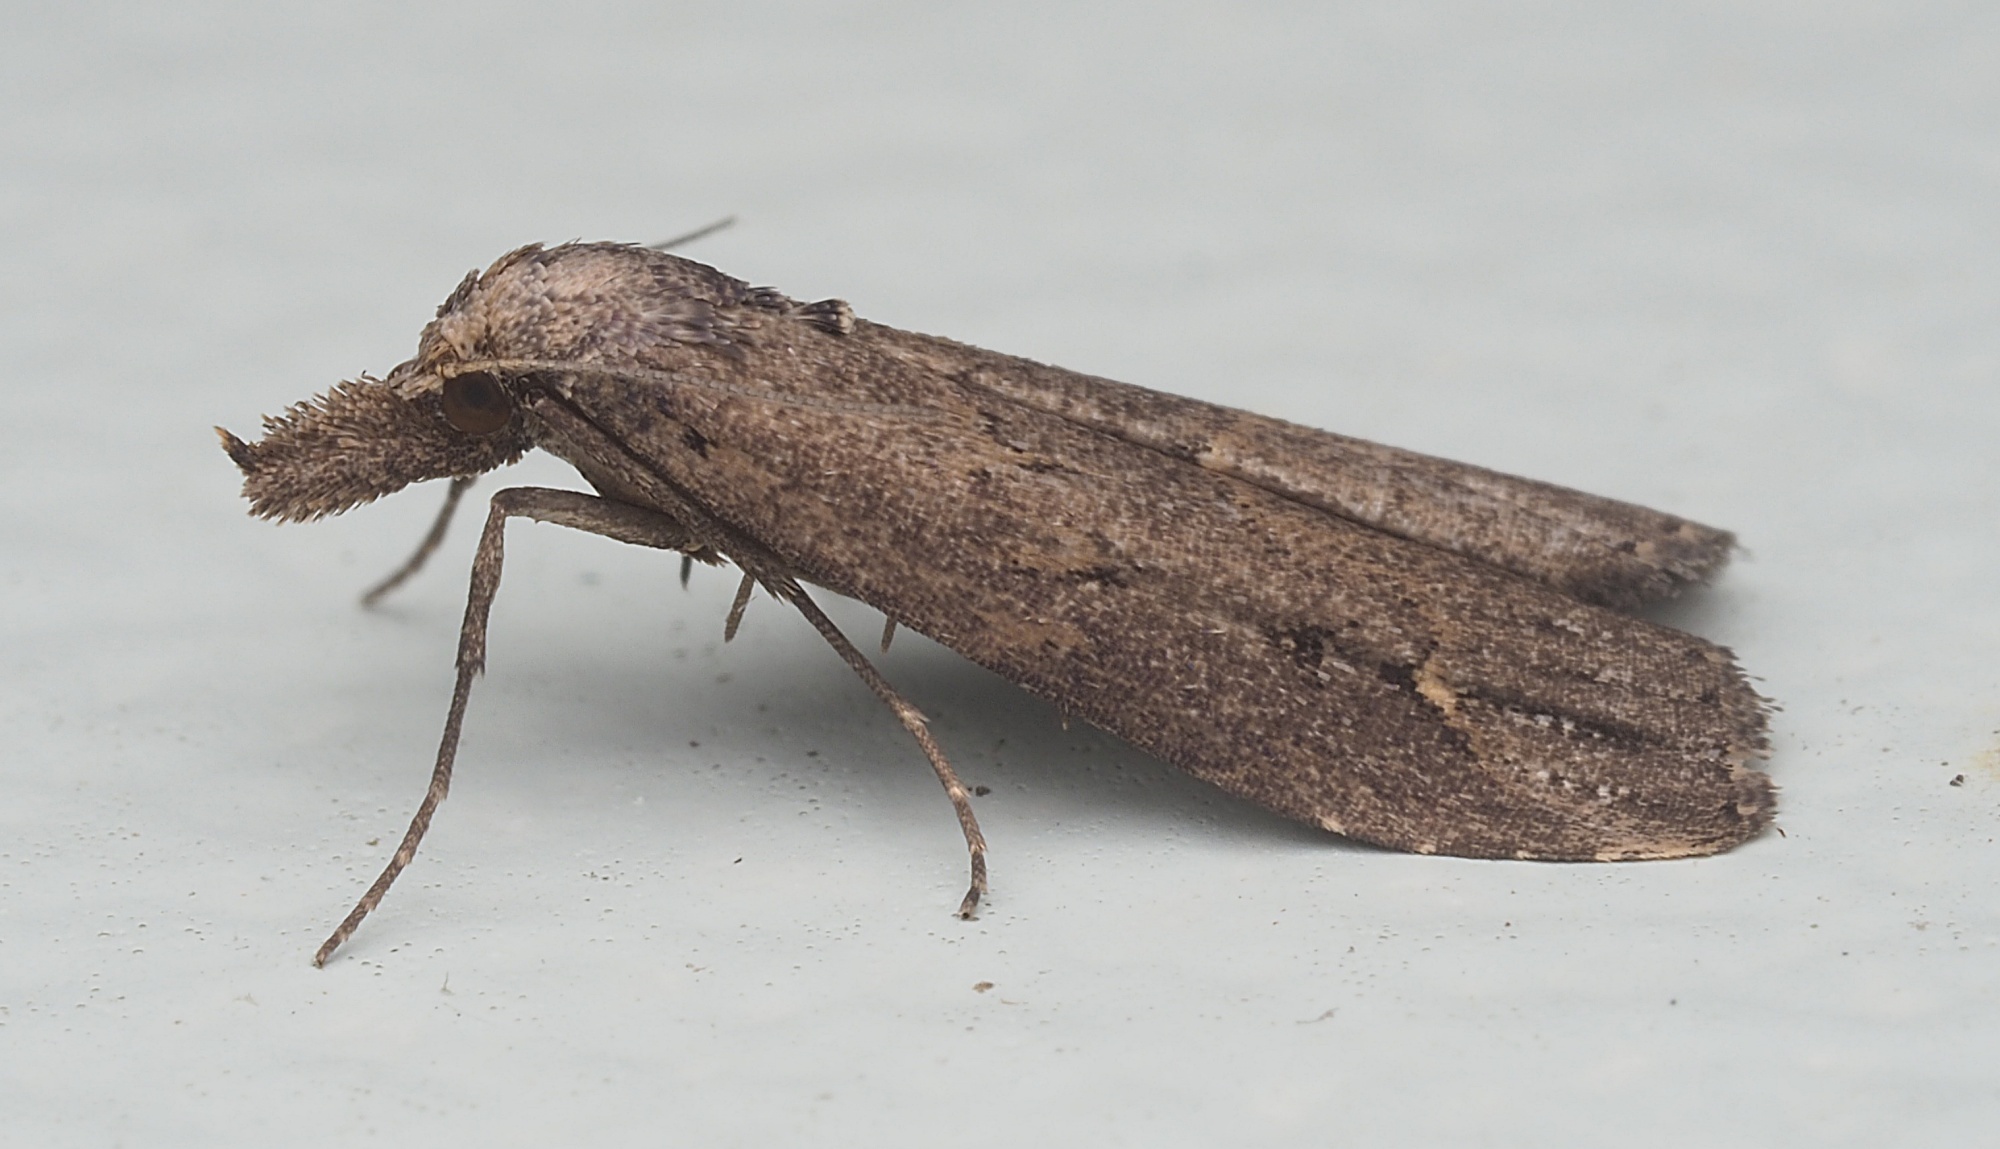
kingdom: Animalia
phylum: Arthropoda
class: Insecta
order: Lepidoptera
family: Erebidae
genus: Schrankia
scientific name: Schrankia costaestrigalis
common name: Pinion-streaked snout
